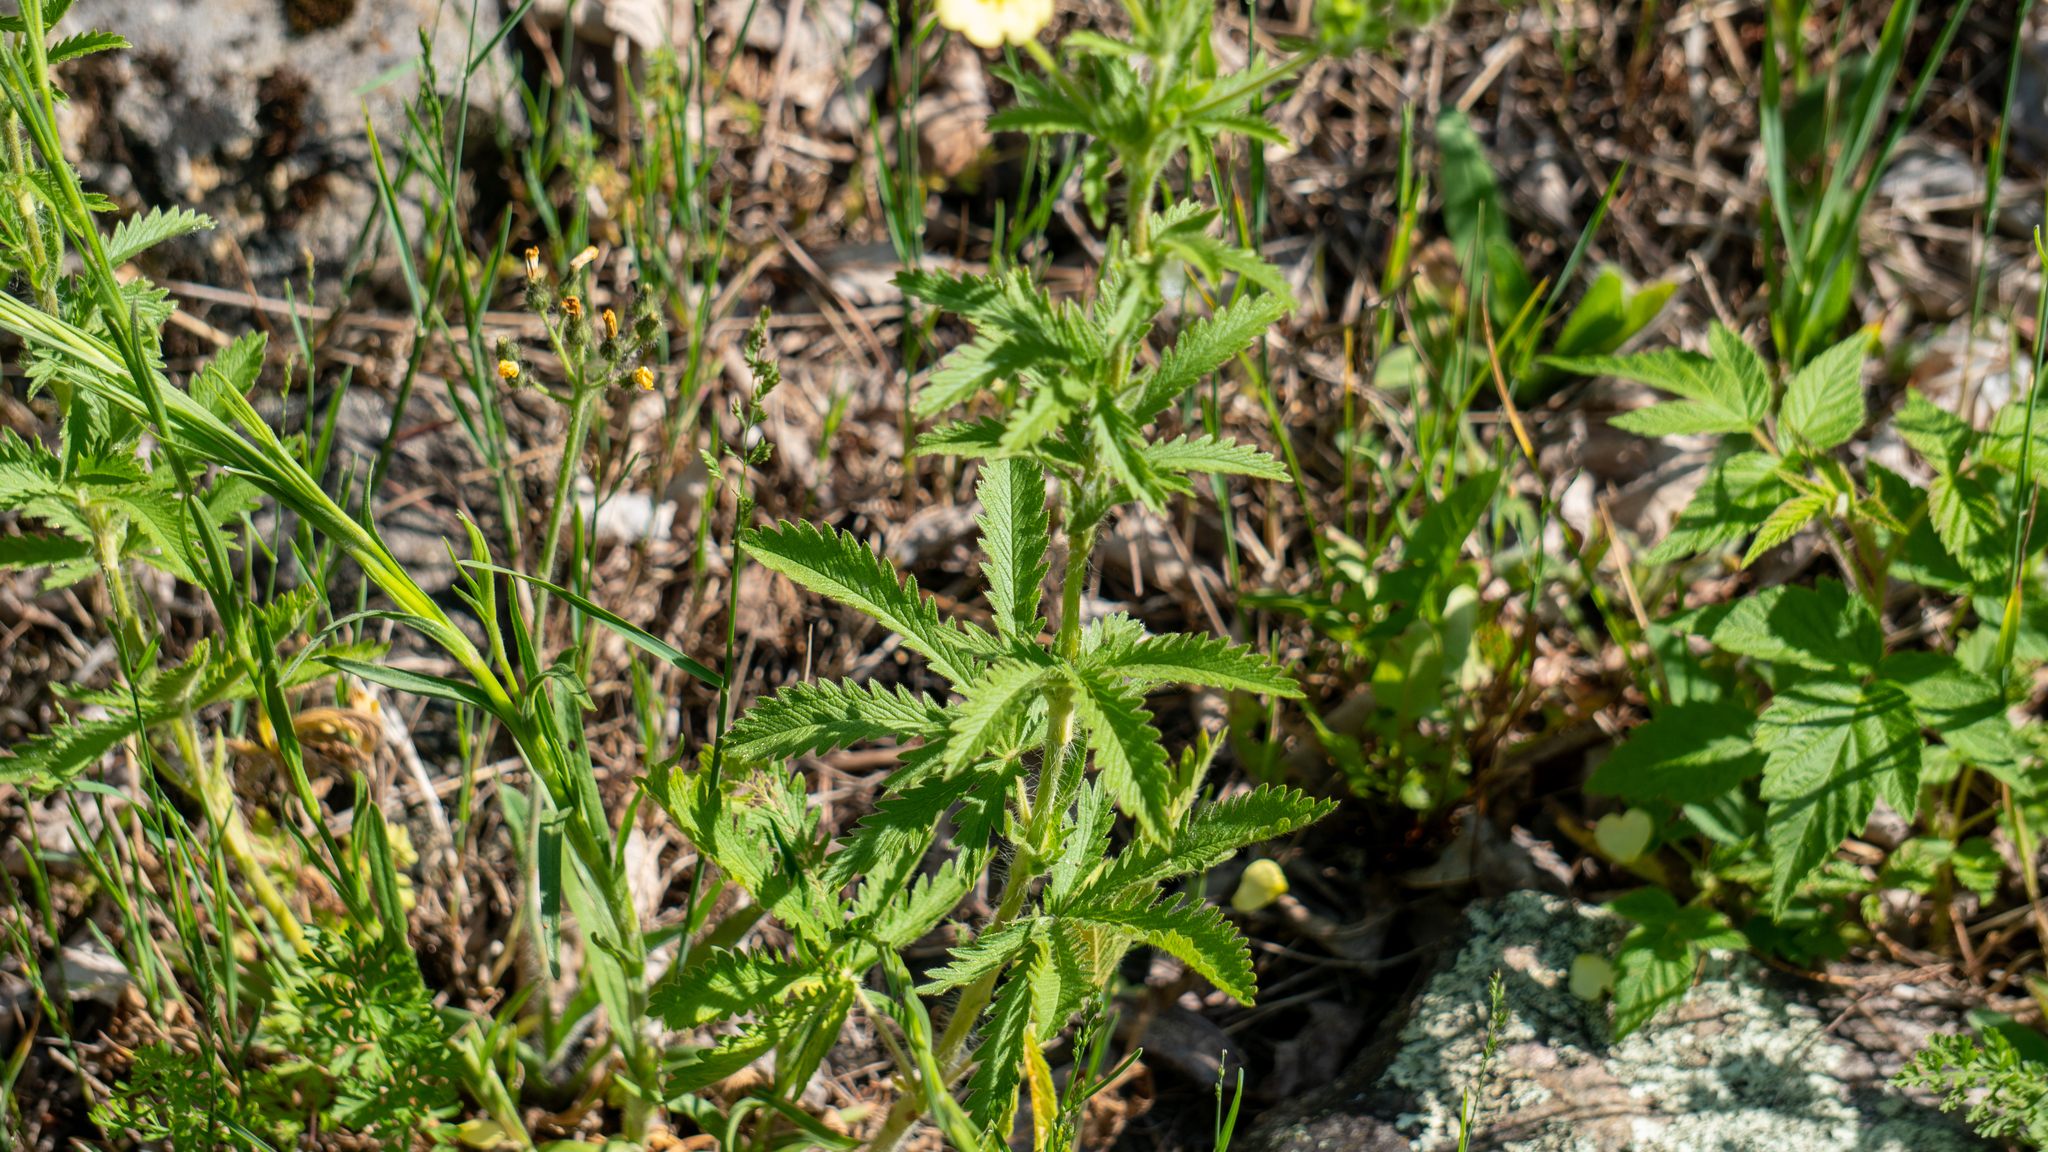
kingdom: Plantae
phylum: Tracheophyta
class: Magnoliopsida
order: Rosales
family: Rosaceae
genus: Potentilla
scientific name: Potentilla recta
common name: Sulphur cinquefoil
